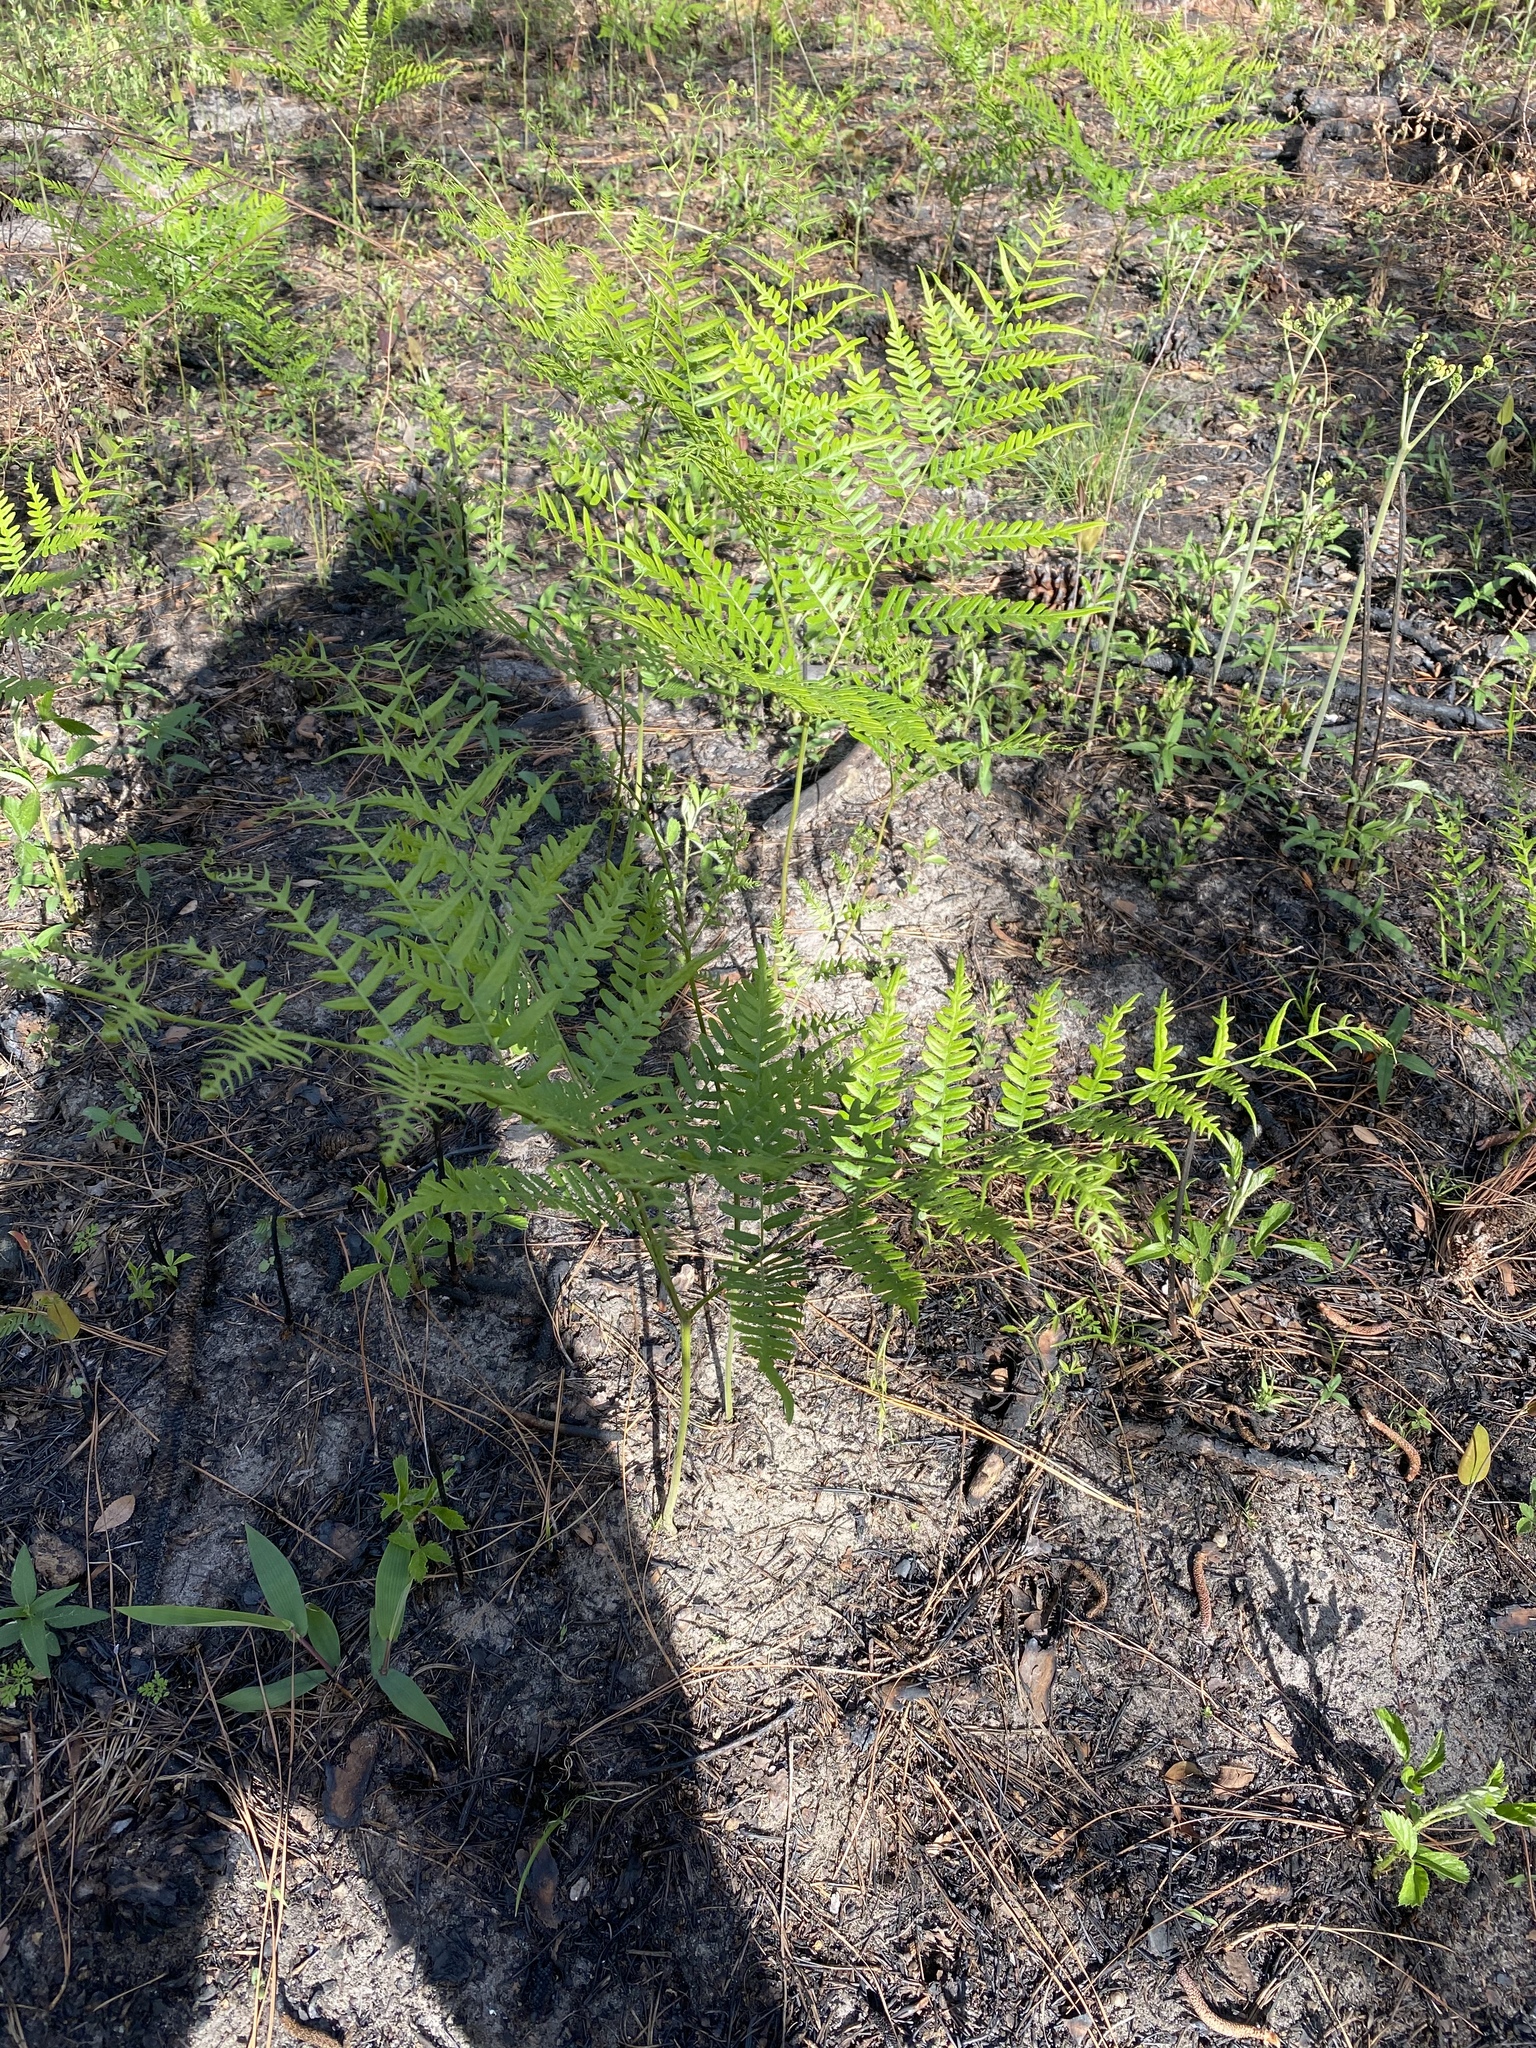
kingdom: Plantae
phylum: Tracheophyta
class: Polypodiopsida
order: Polypodiales
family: Dennstaedtiaceae
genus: Pteridium
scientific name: Pteridium aquilinum
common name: Bracken
